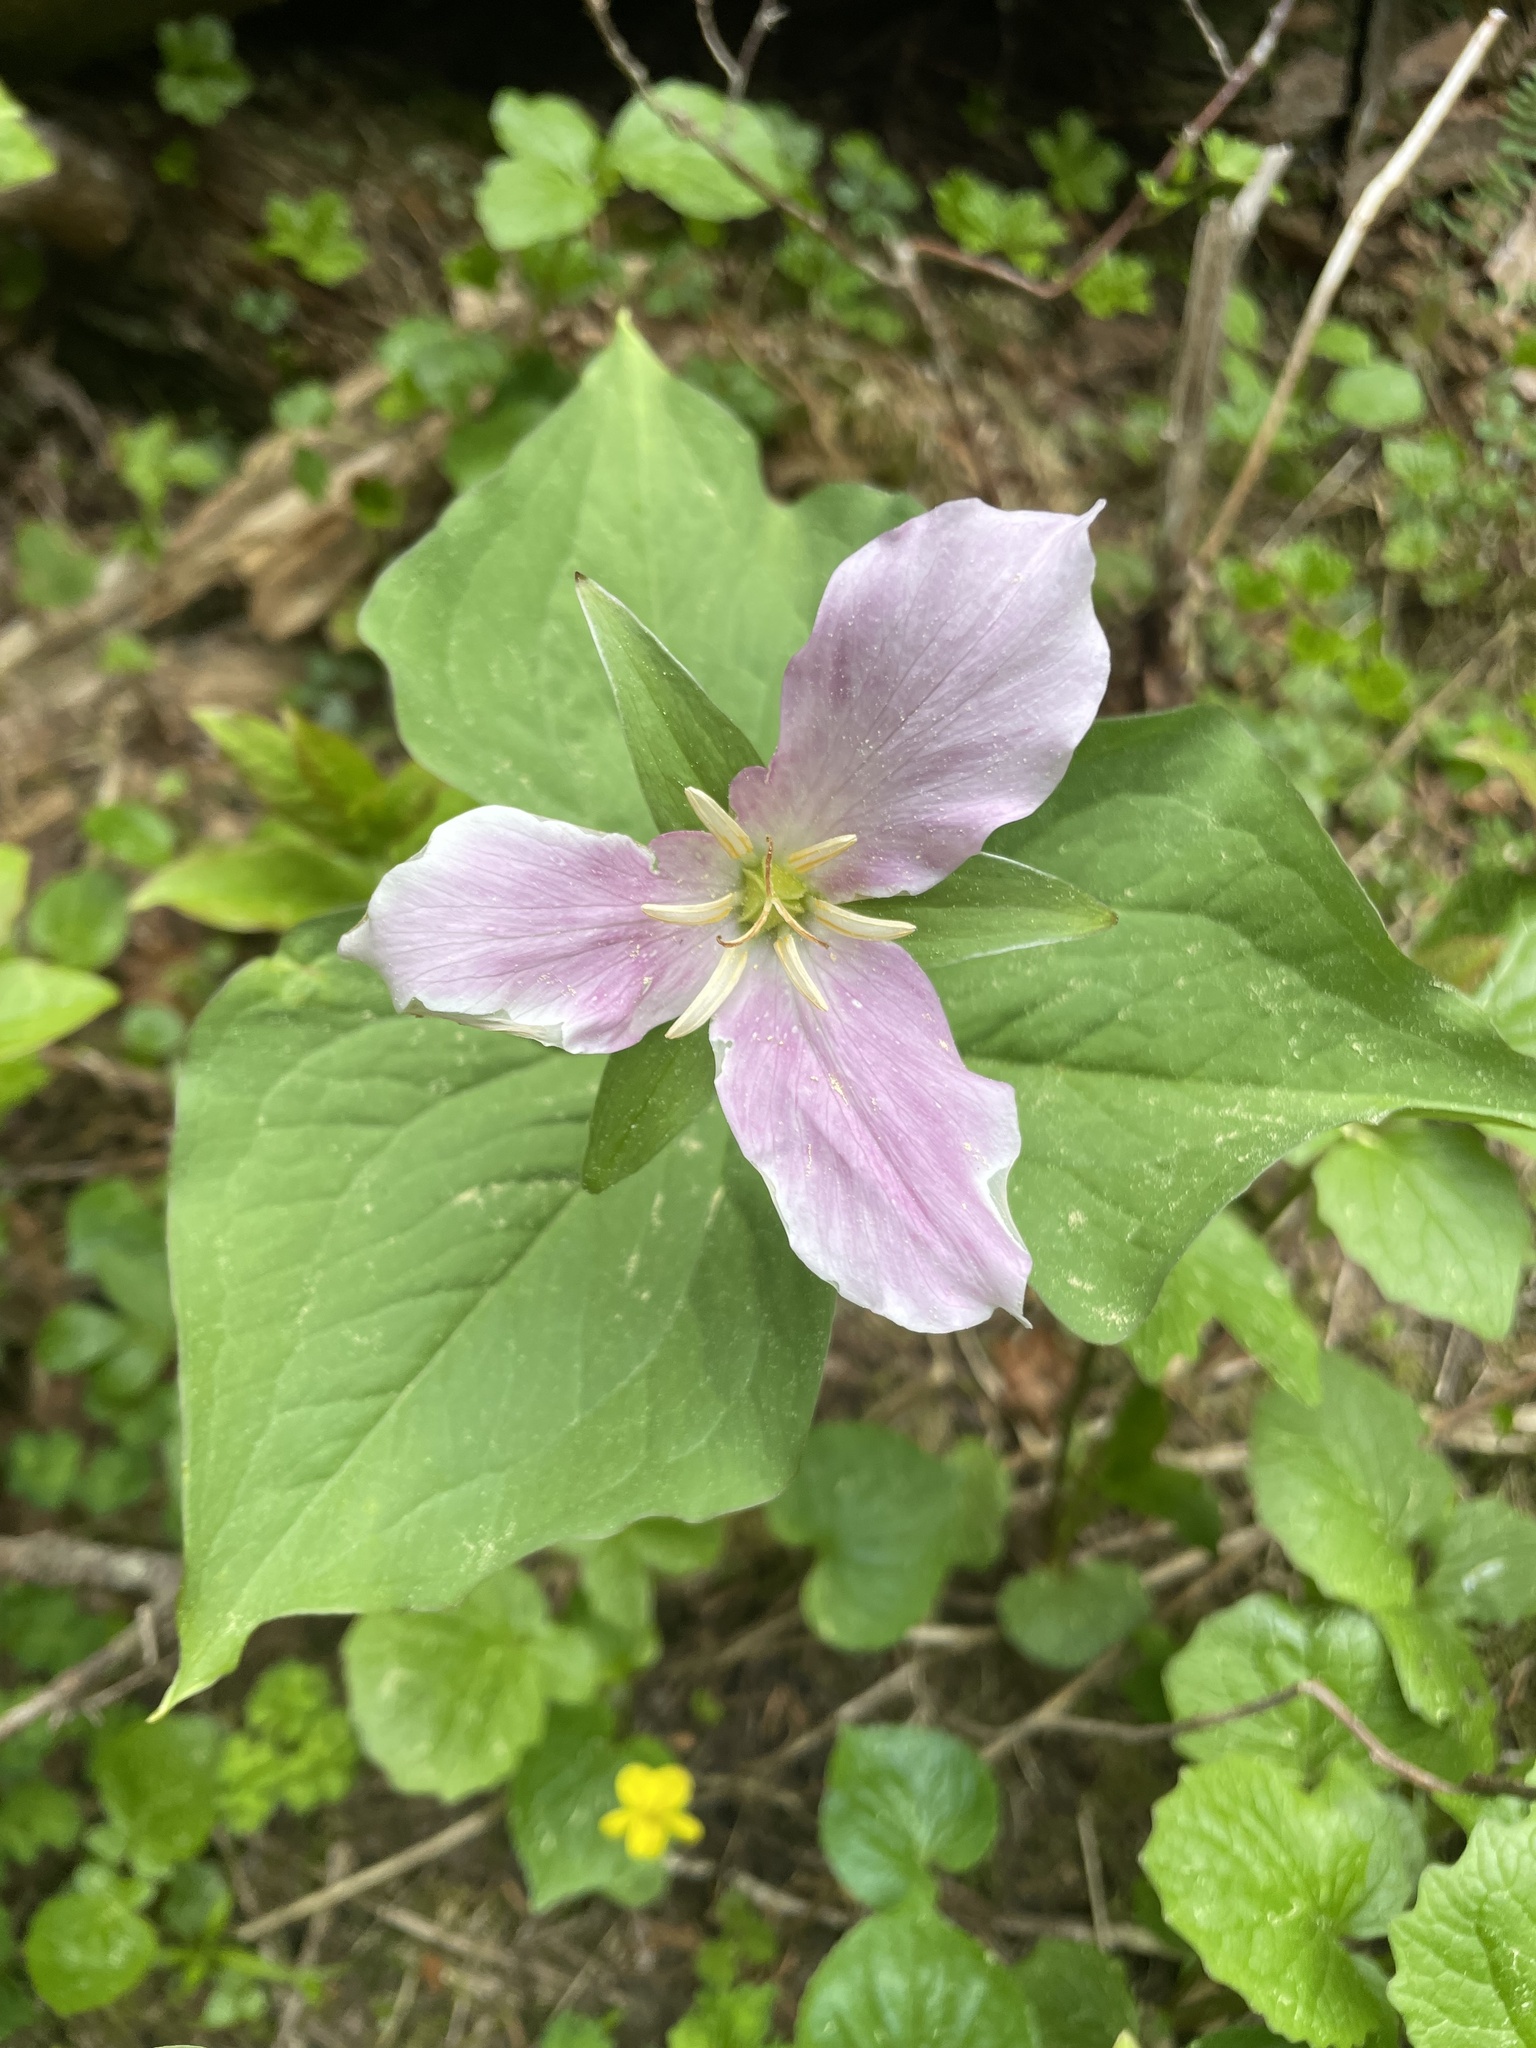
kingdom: Plantae
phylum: Tracheophyta
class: Liliopsida
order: Liliales
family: Melanthiaceae
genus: Trillium
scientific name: Trillium ovatum
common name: Pacific trillium
